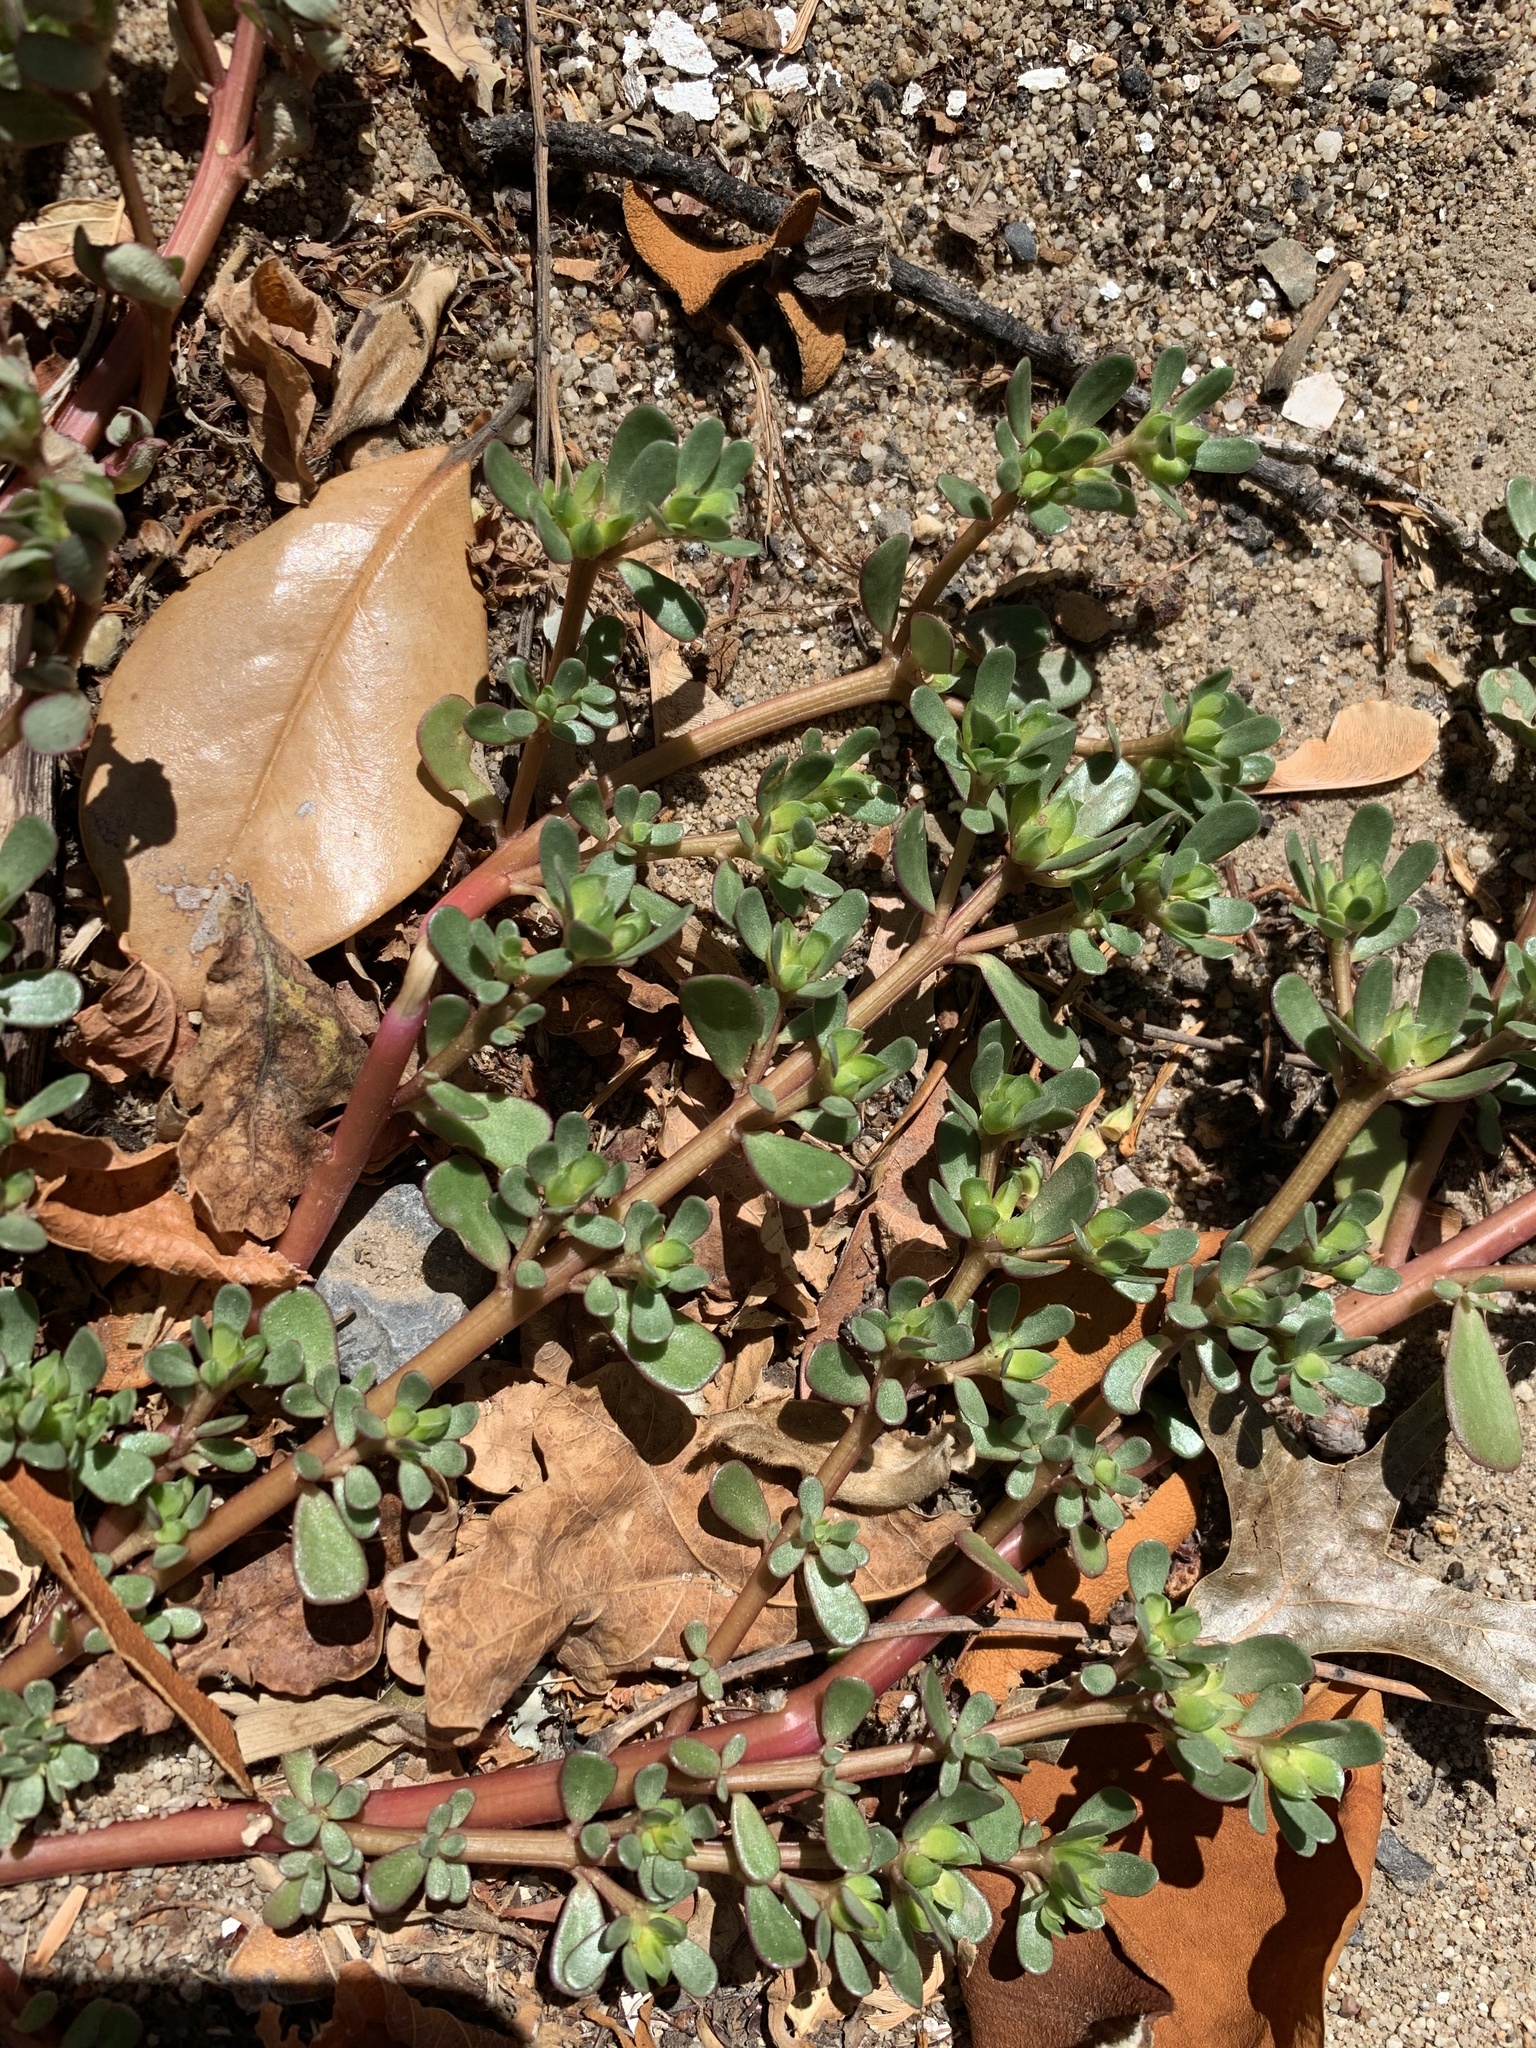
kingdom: Plantae
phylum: Tracheophyta
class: Magnoliopsida
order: Caryophyllales
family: Portulacaceae
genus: Portulaca
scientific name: Portulaca oleracea
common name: Common purslane
